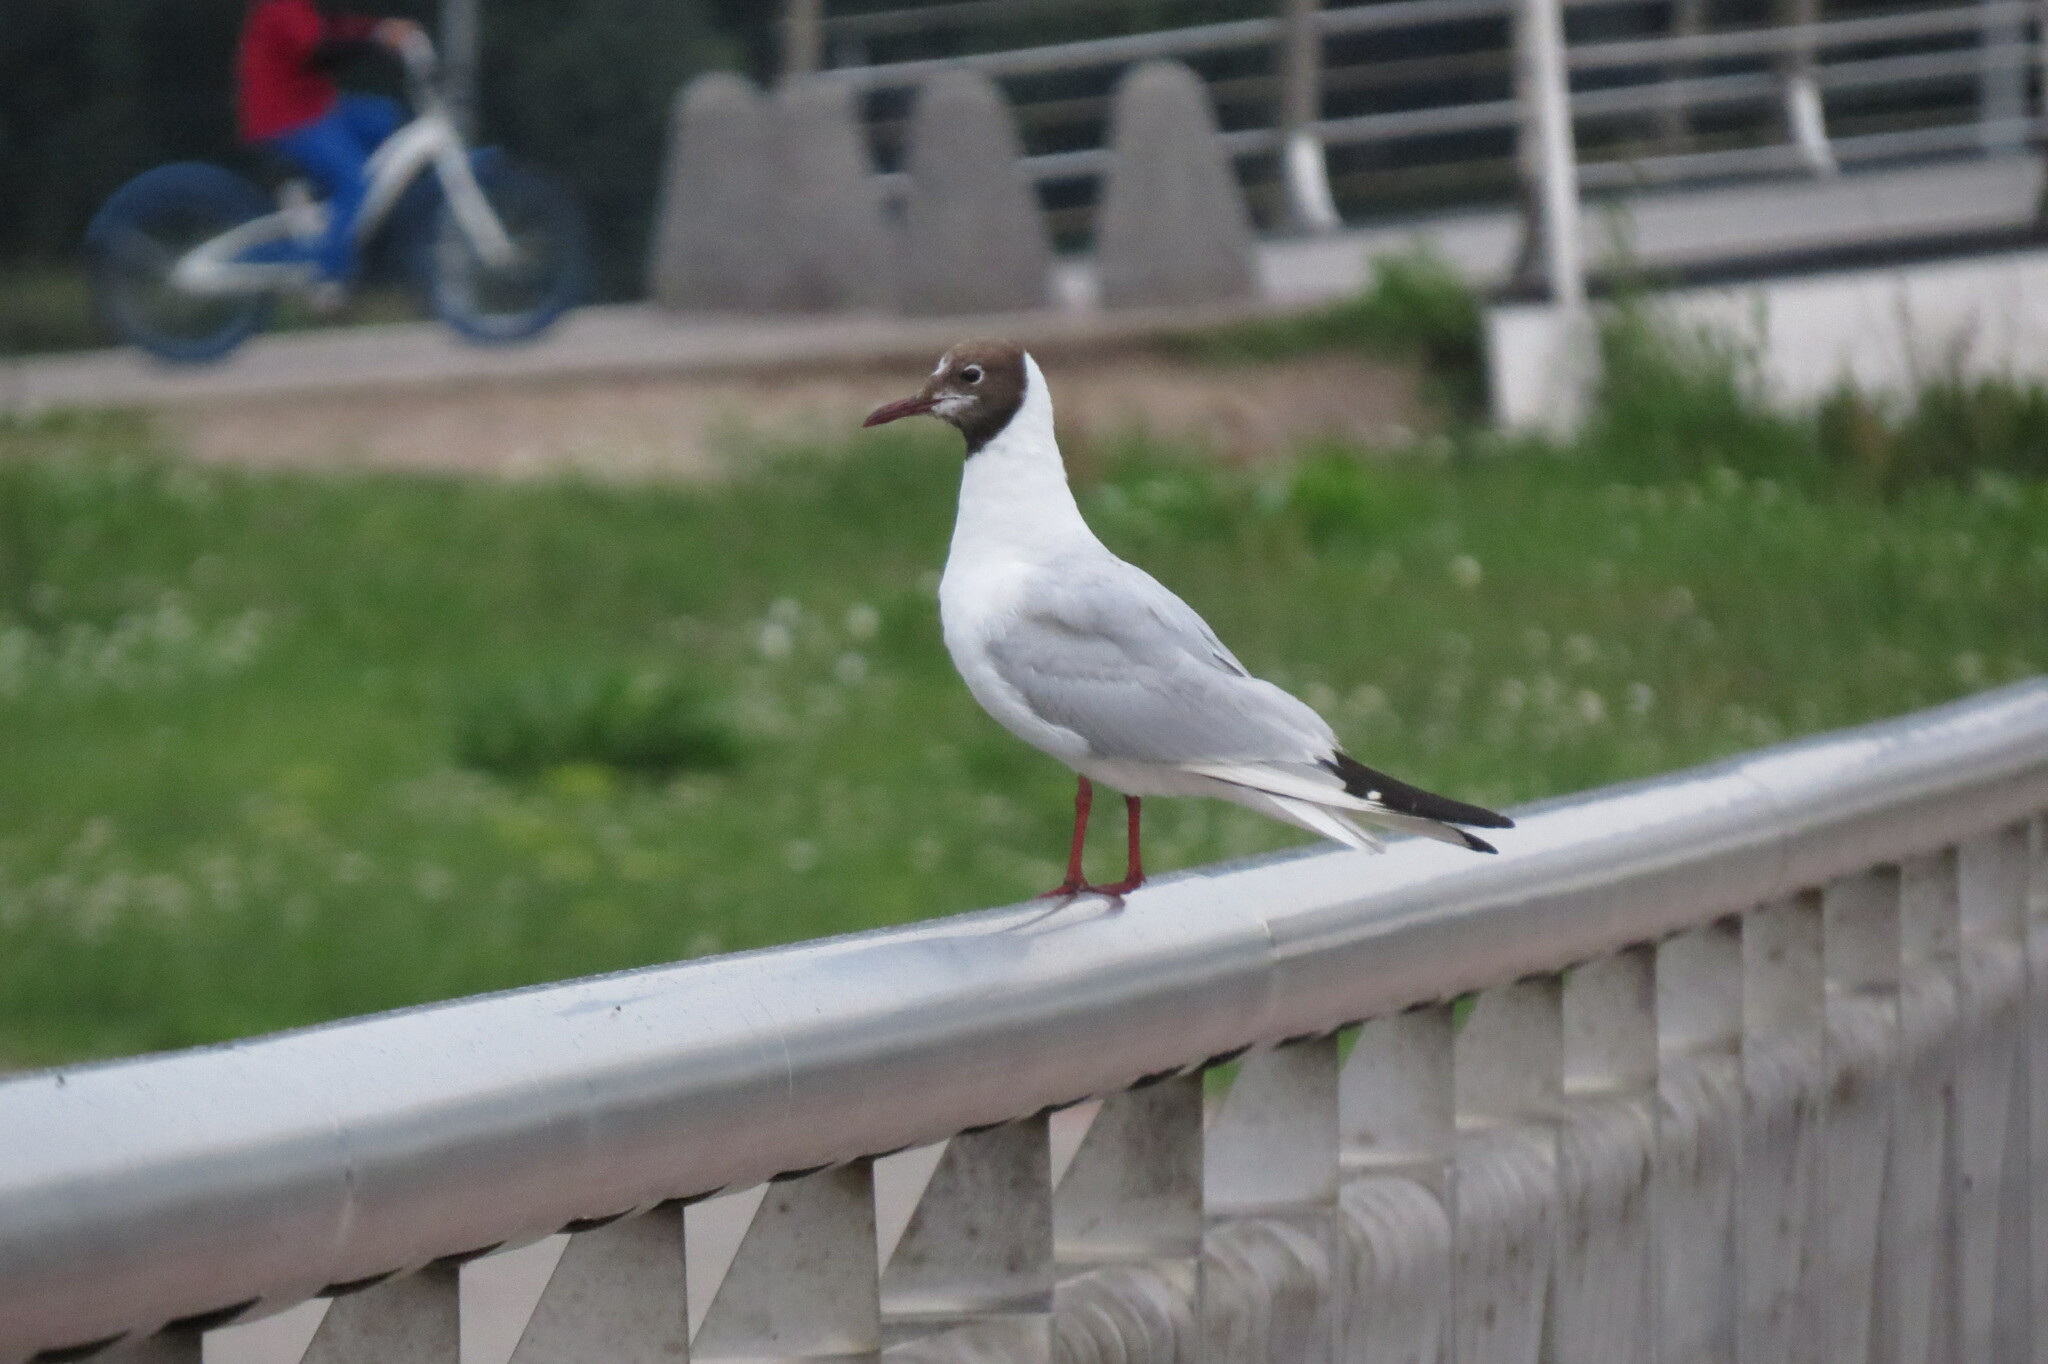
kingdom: Animalia
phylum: Chordata
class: Aves
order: Charadriiformes
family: Laridae
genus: Chroicocephalus
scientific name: Chroicocephalus ridibundus
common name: Black-headed gull
